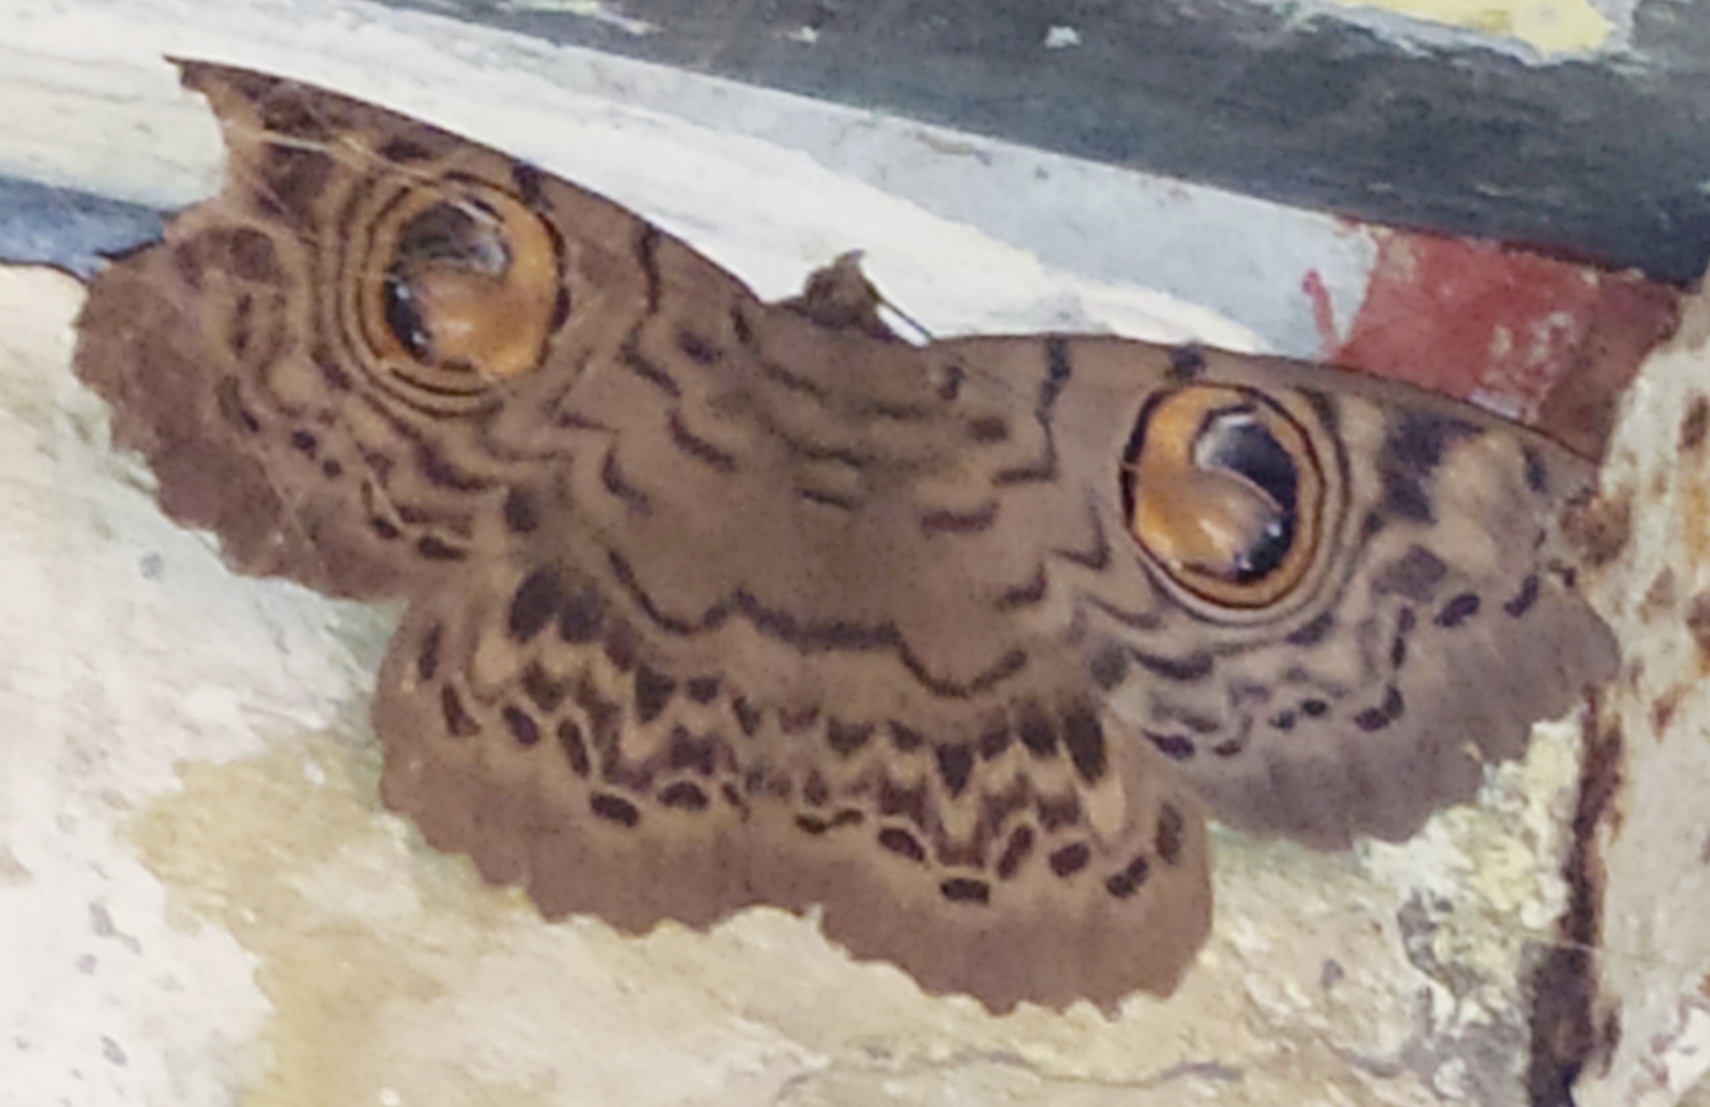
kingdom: Animalia
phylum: Arthropoda
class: Insecta
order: Lepidoptera
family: Erebidae
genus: Erebus
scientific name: Erebus macrops
